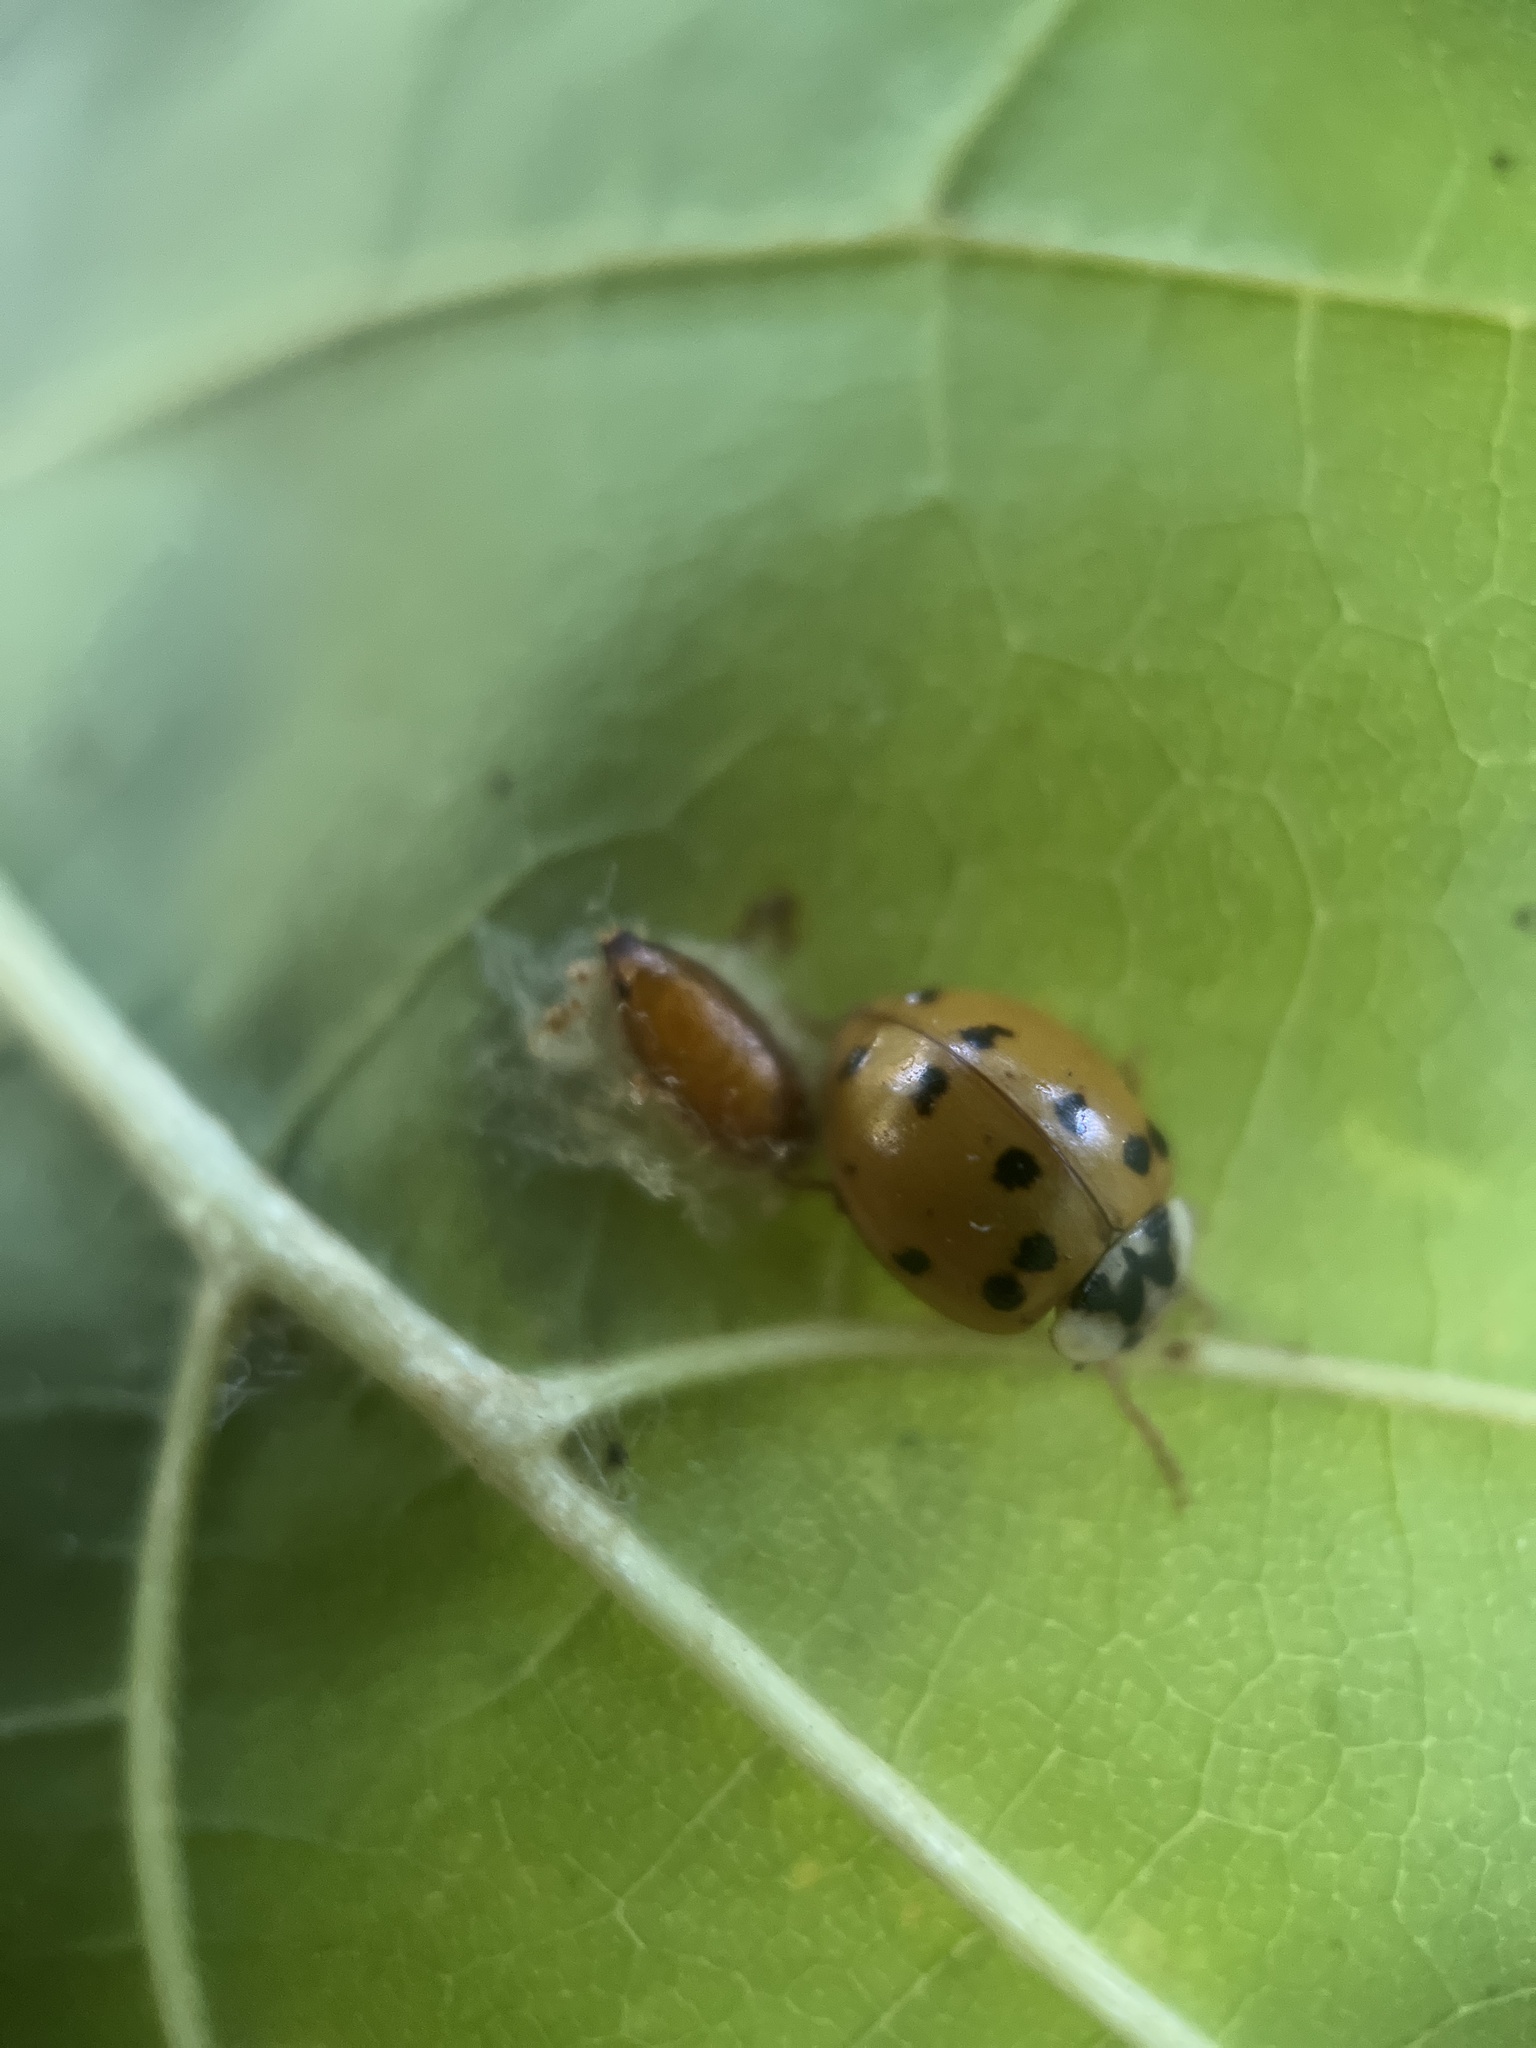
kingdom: Animalia
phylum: Arthropoda
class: Insecta
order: Coleoptera
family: Coccinellidae
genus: Harmonia
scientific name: Harmonia axyridis
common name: Harlequin ladybird
